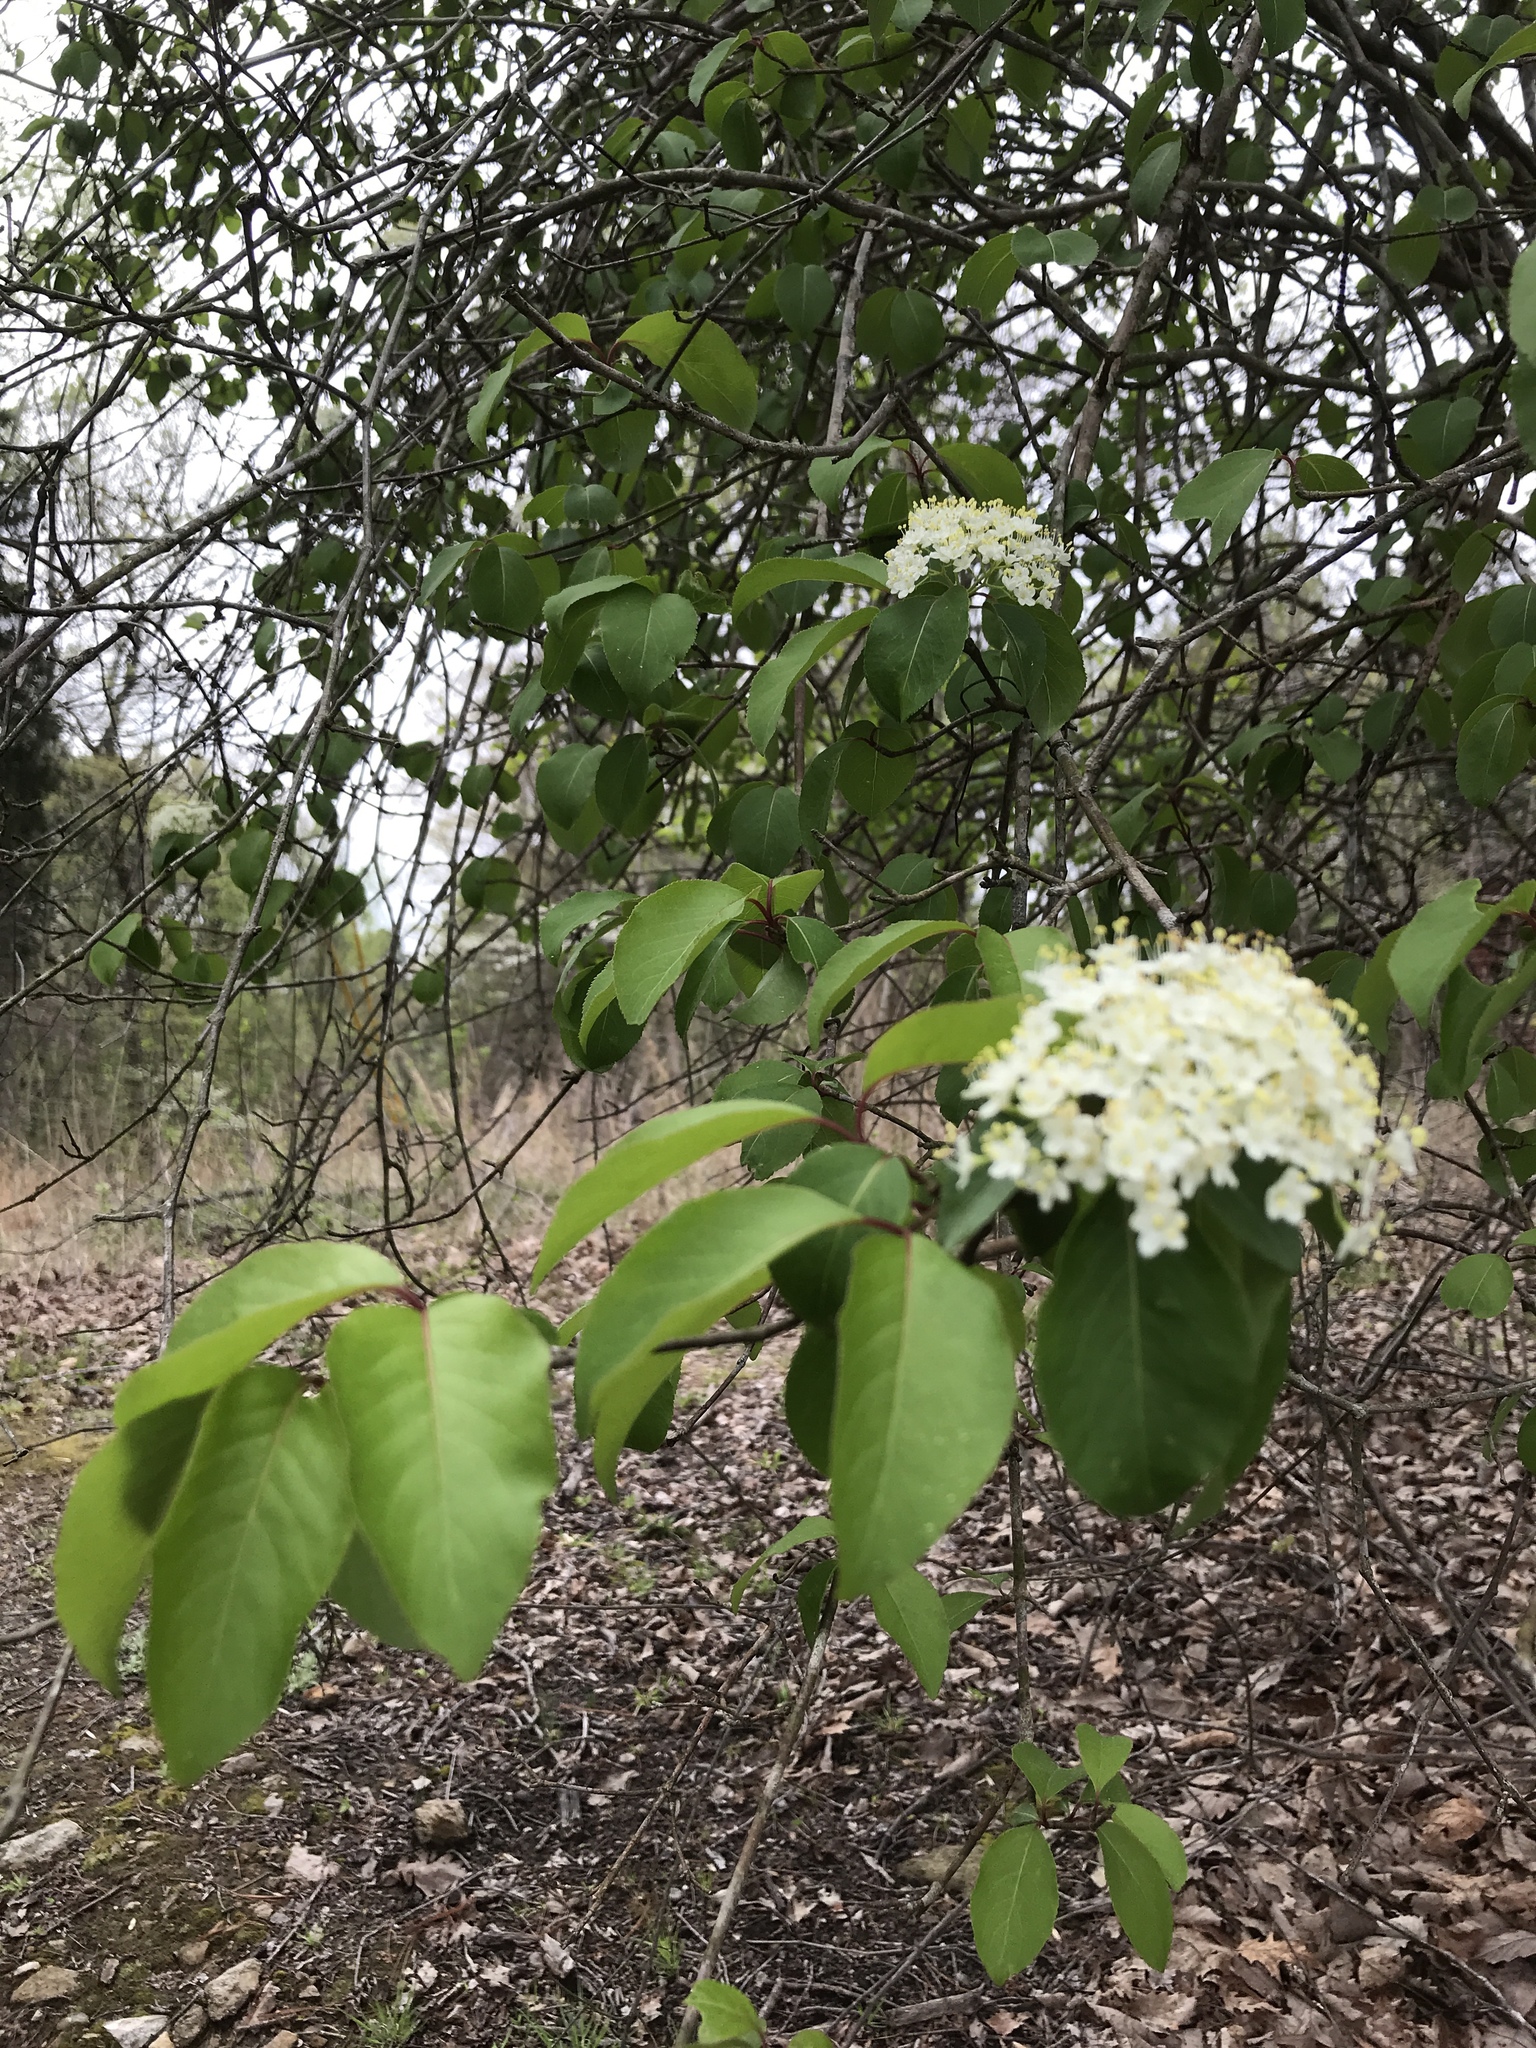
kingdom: Plantae
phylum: Tracheophyta
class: Magnoliopsida
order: Dipsacales
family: Viburnaceae
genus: Viburnum
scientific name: Viburnum prunifolium
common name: Black haw
